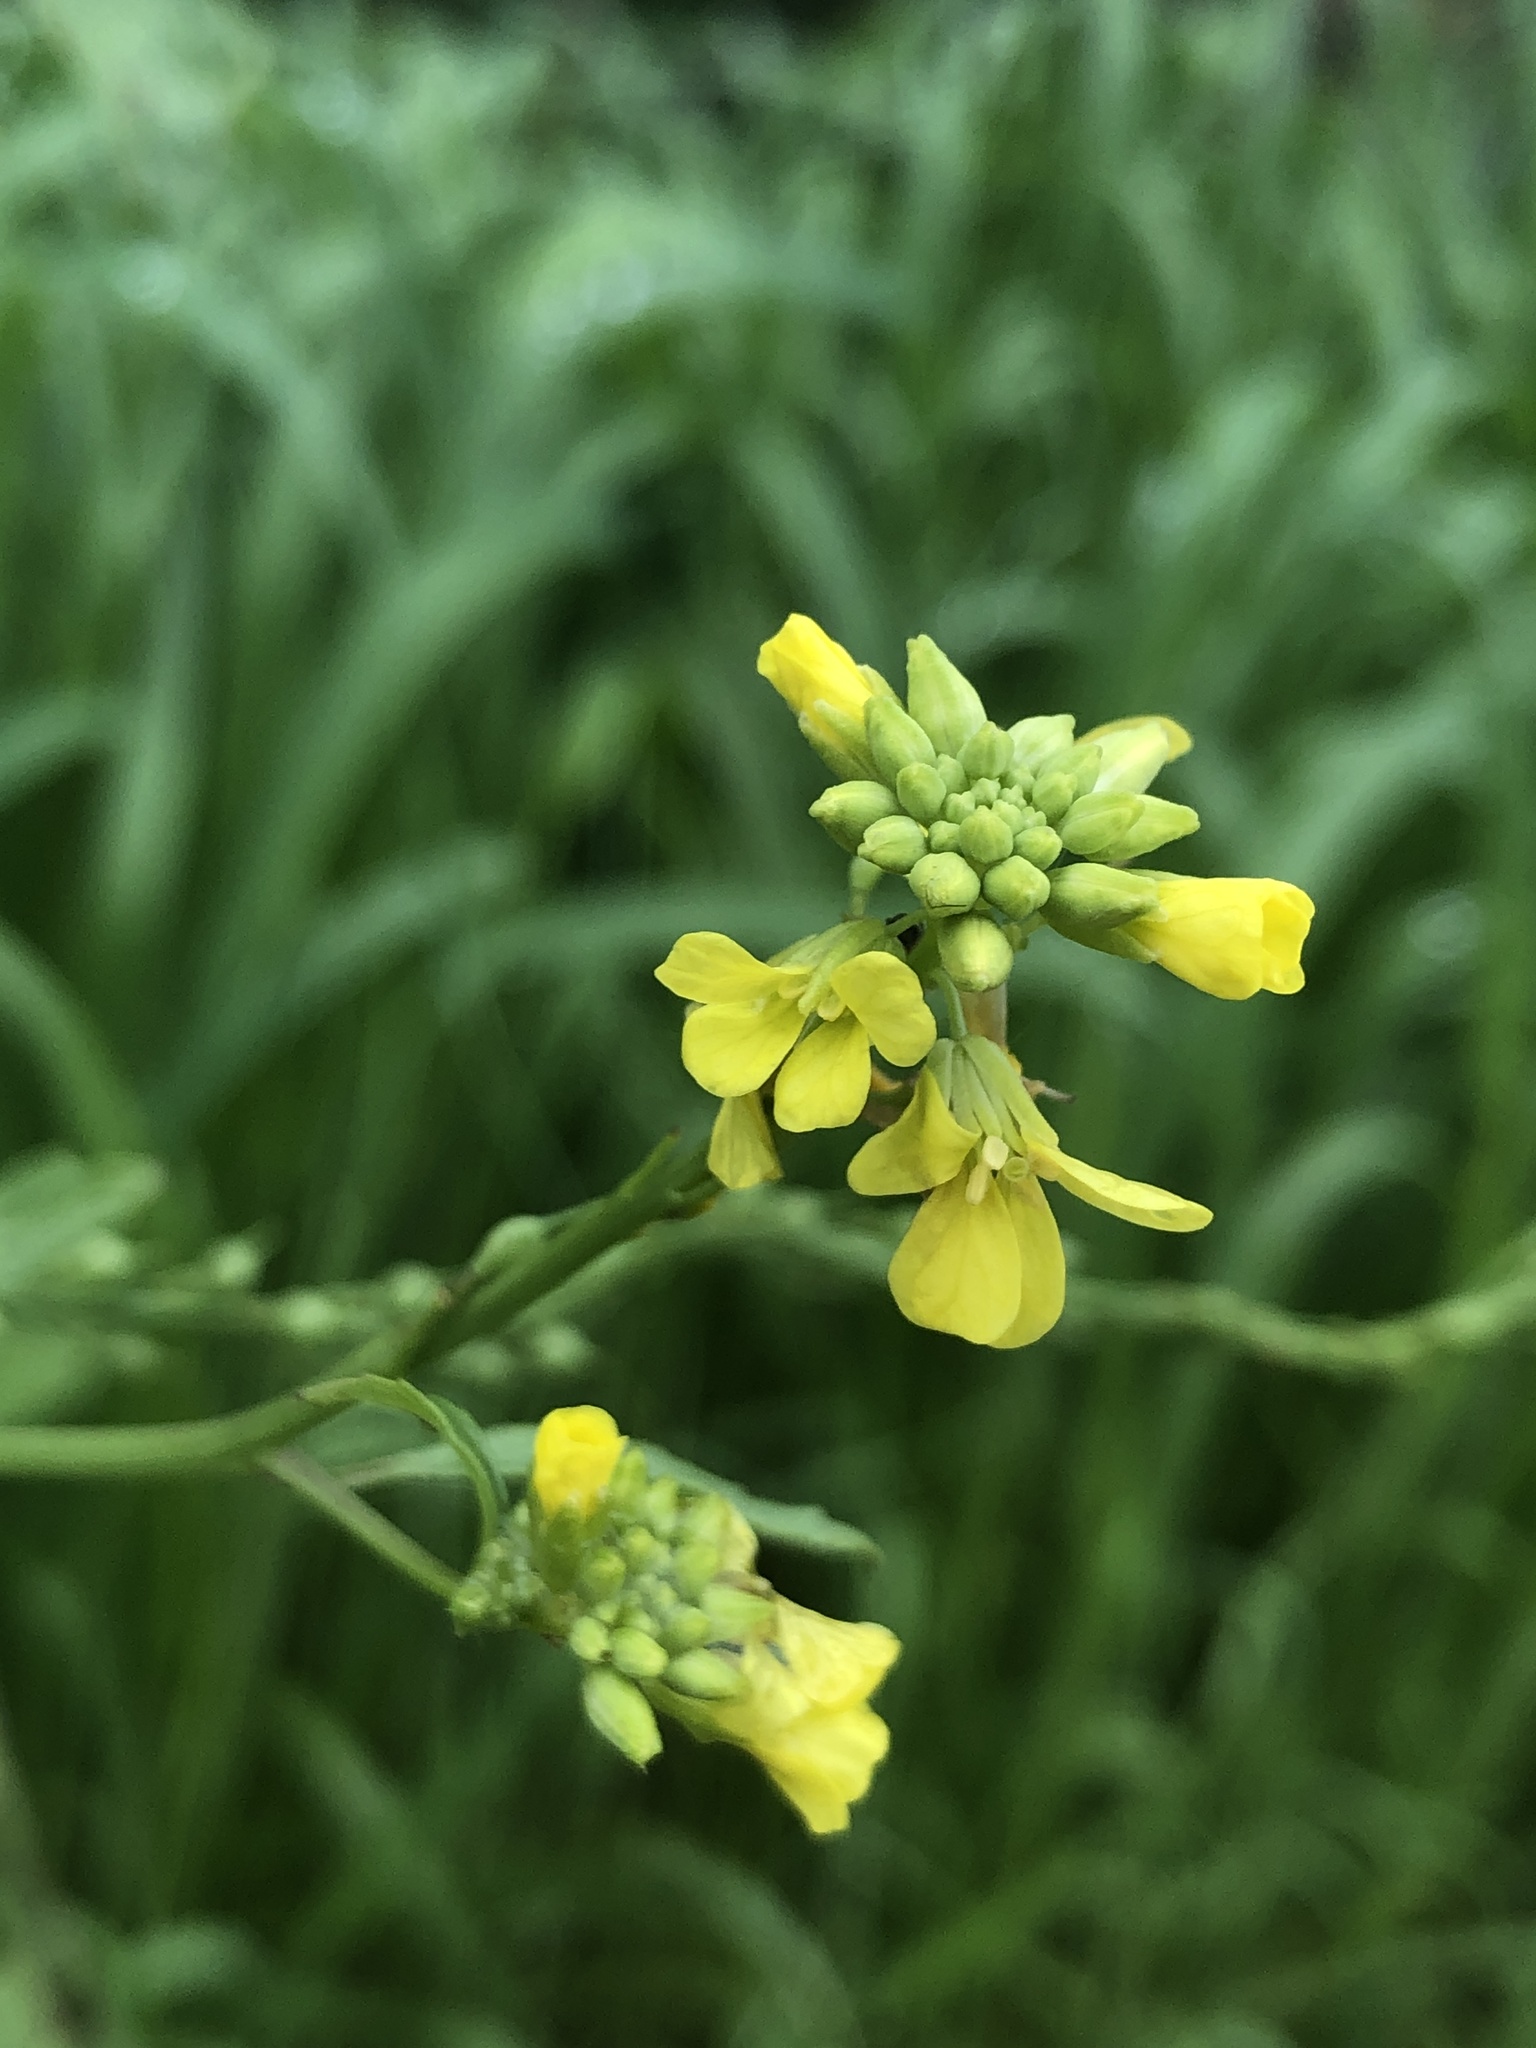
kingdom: Plantae
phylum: Tracheophyta
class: Magnoliopsida
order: Brassicales
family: Brassicaceae
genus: Rapistrum
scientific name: Rapistrum rugosum
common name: Annual bastardcabbage
